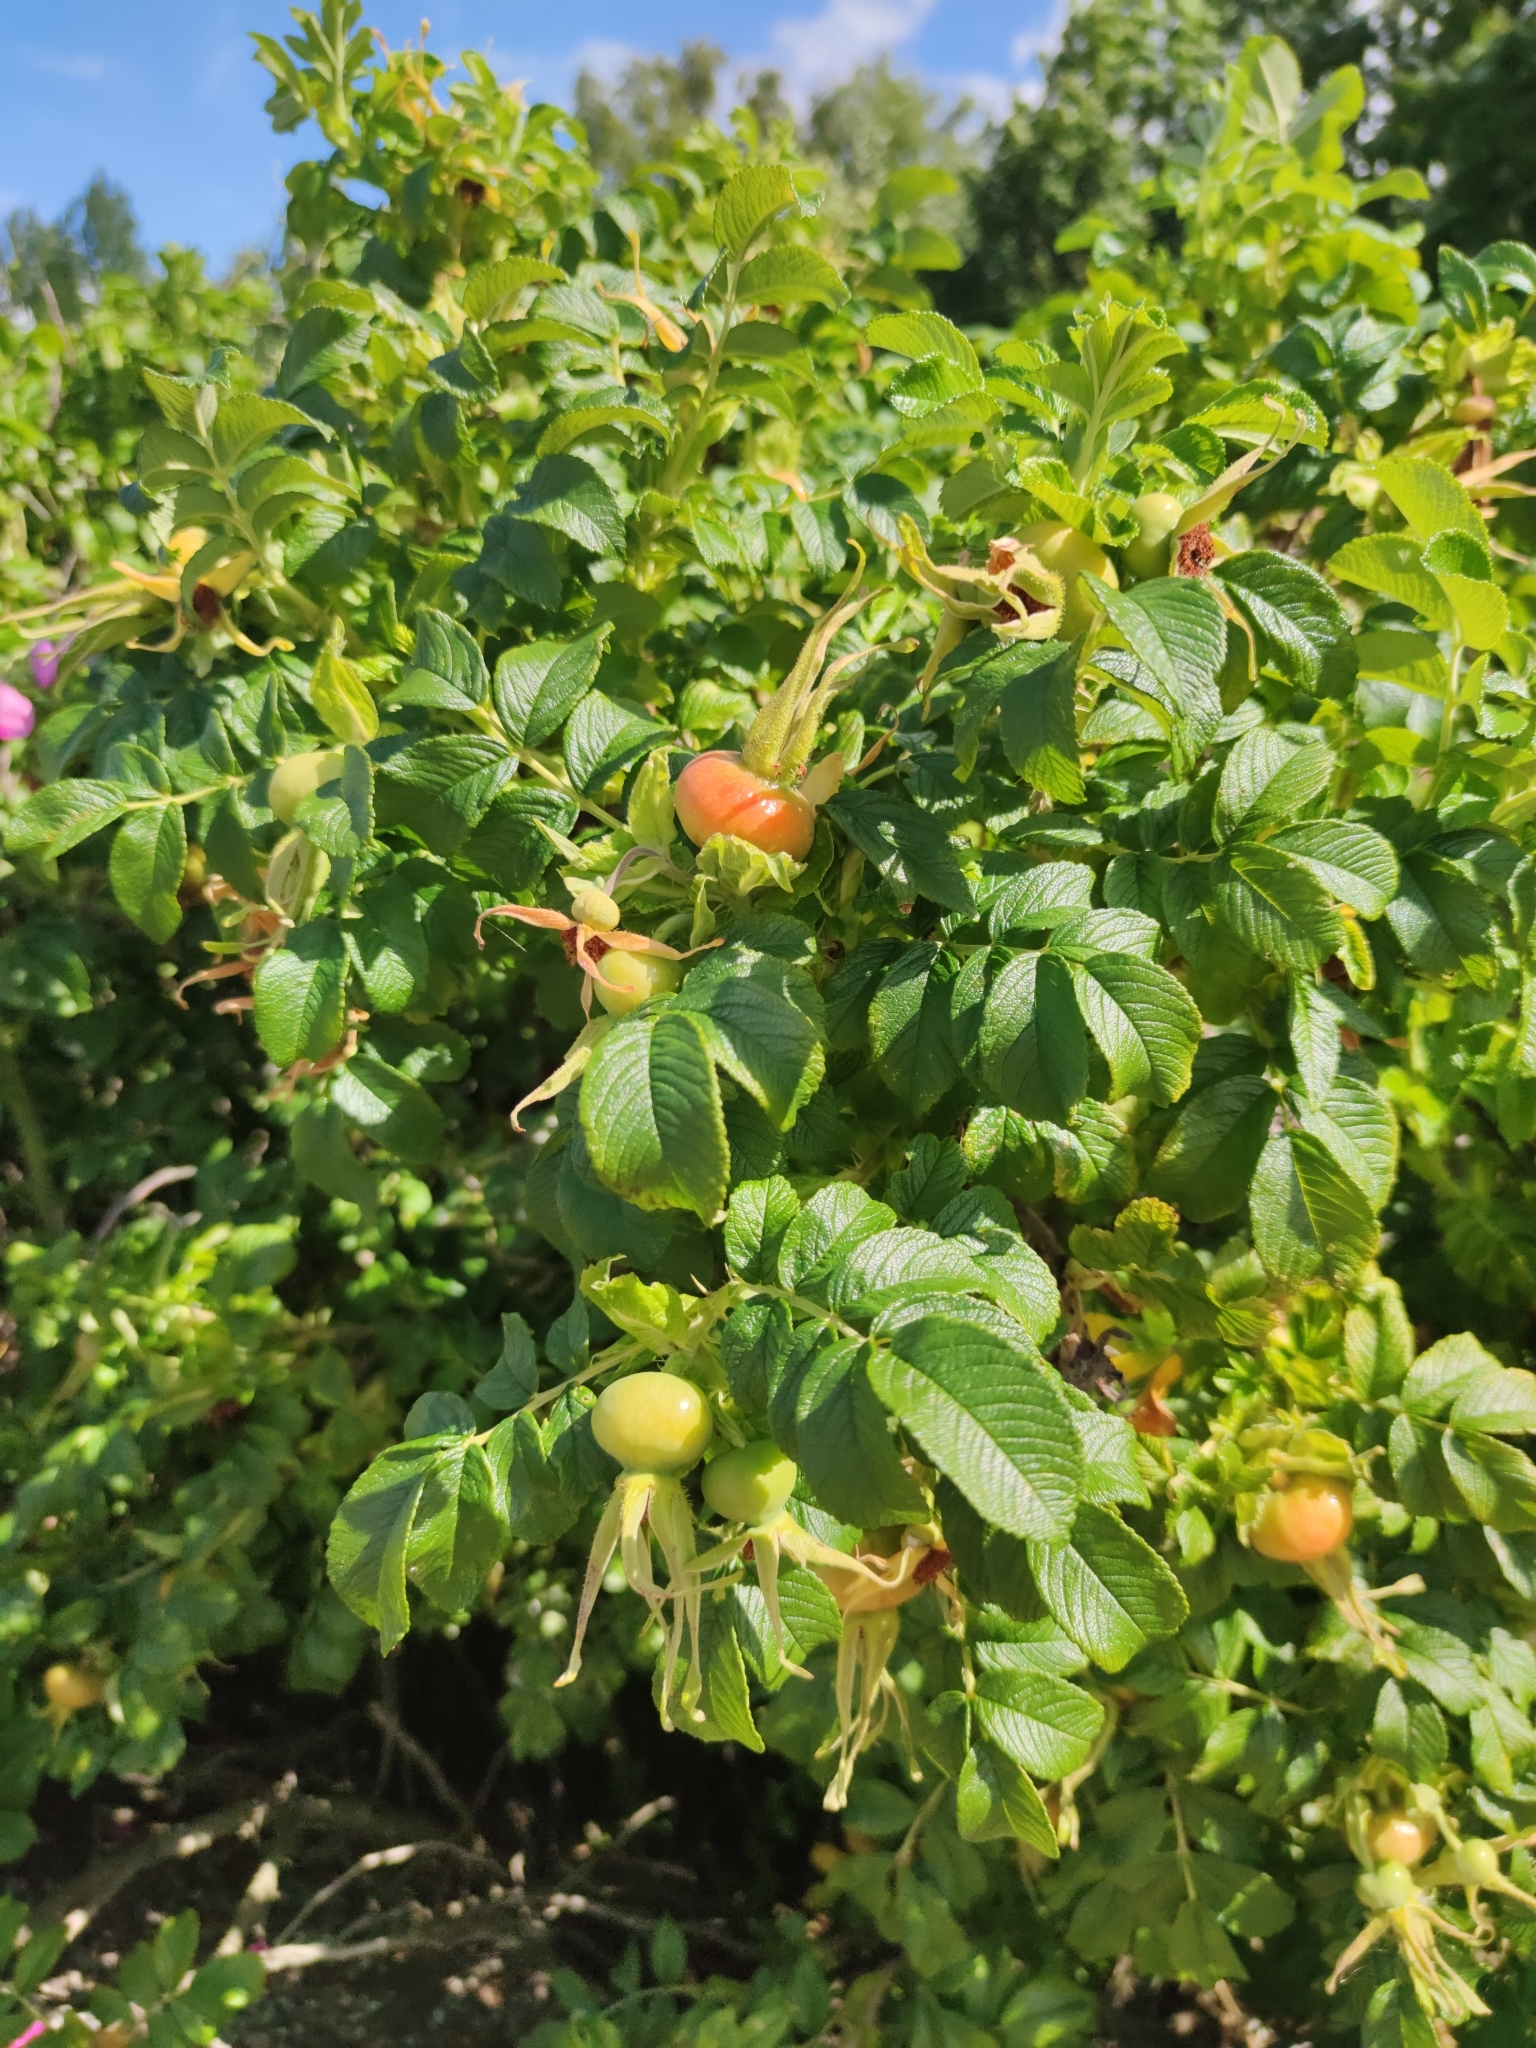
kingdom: Plantae
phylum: Tracheophyta
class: Magnoliopsida
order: Rosales
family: Rosaceae
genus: Rosa
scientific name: Rosa rugosa
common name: Japanese rose
